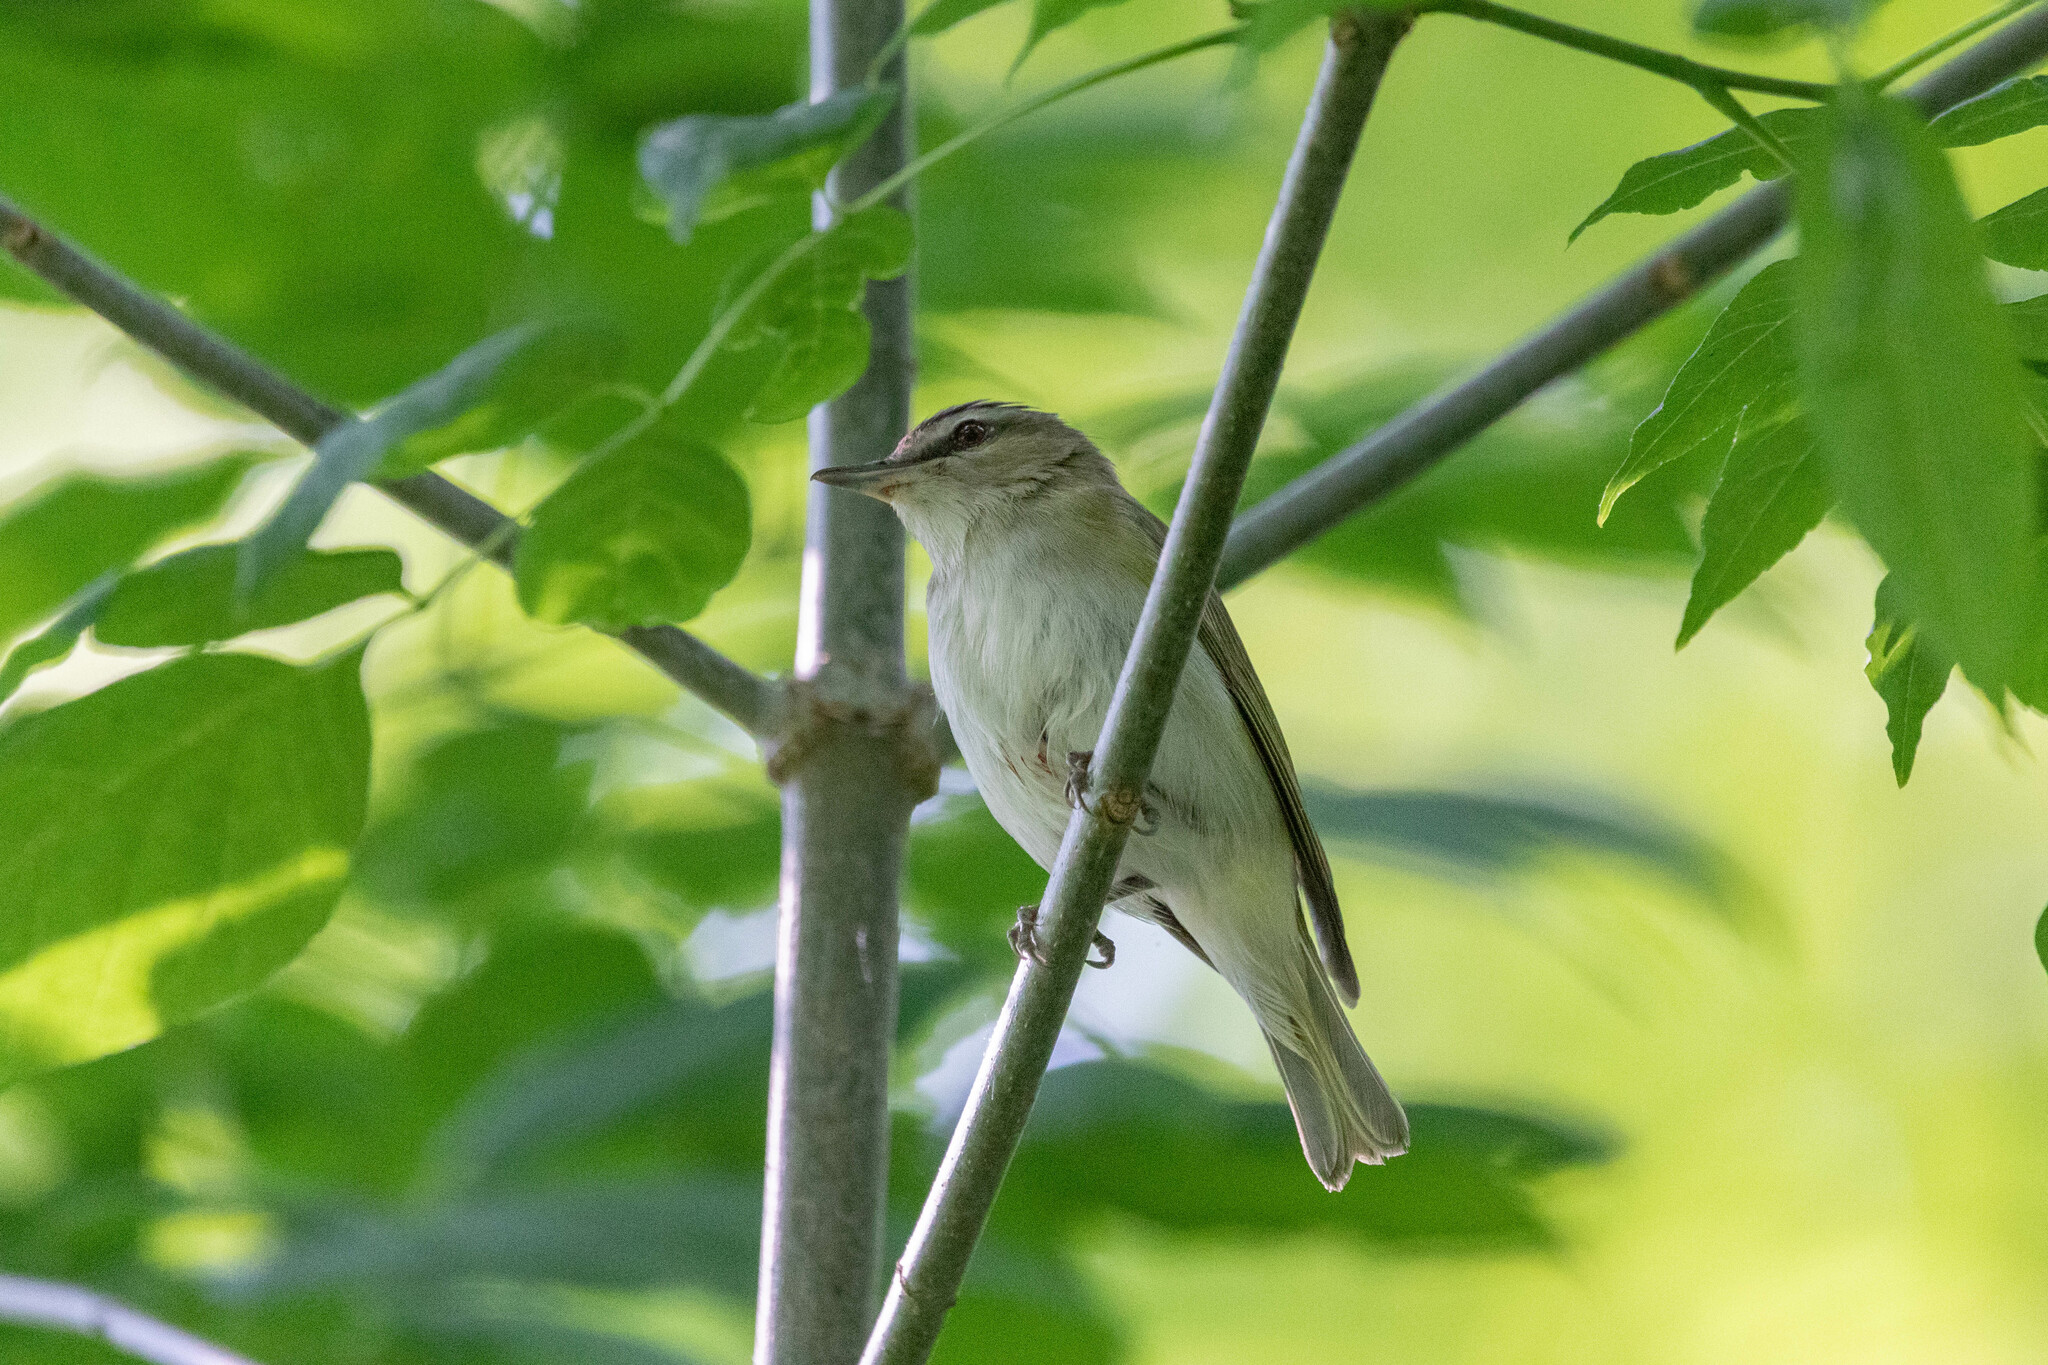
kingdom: Animalia
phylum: Chordata
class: Aves
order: Passeriformes
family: Vireonidae
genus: Vireo
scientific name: Vireo olivaceus
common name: Red-eyed vireo
